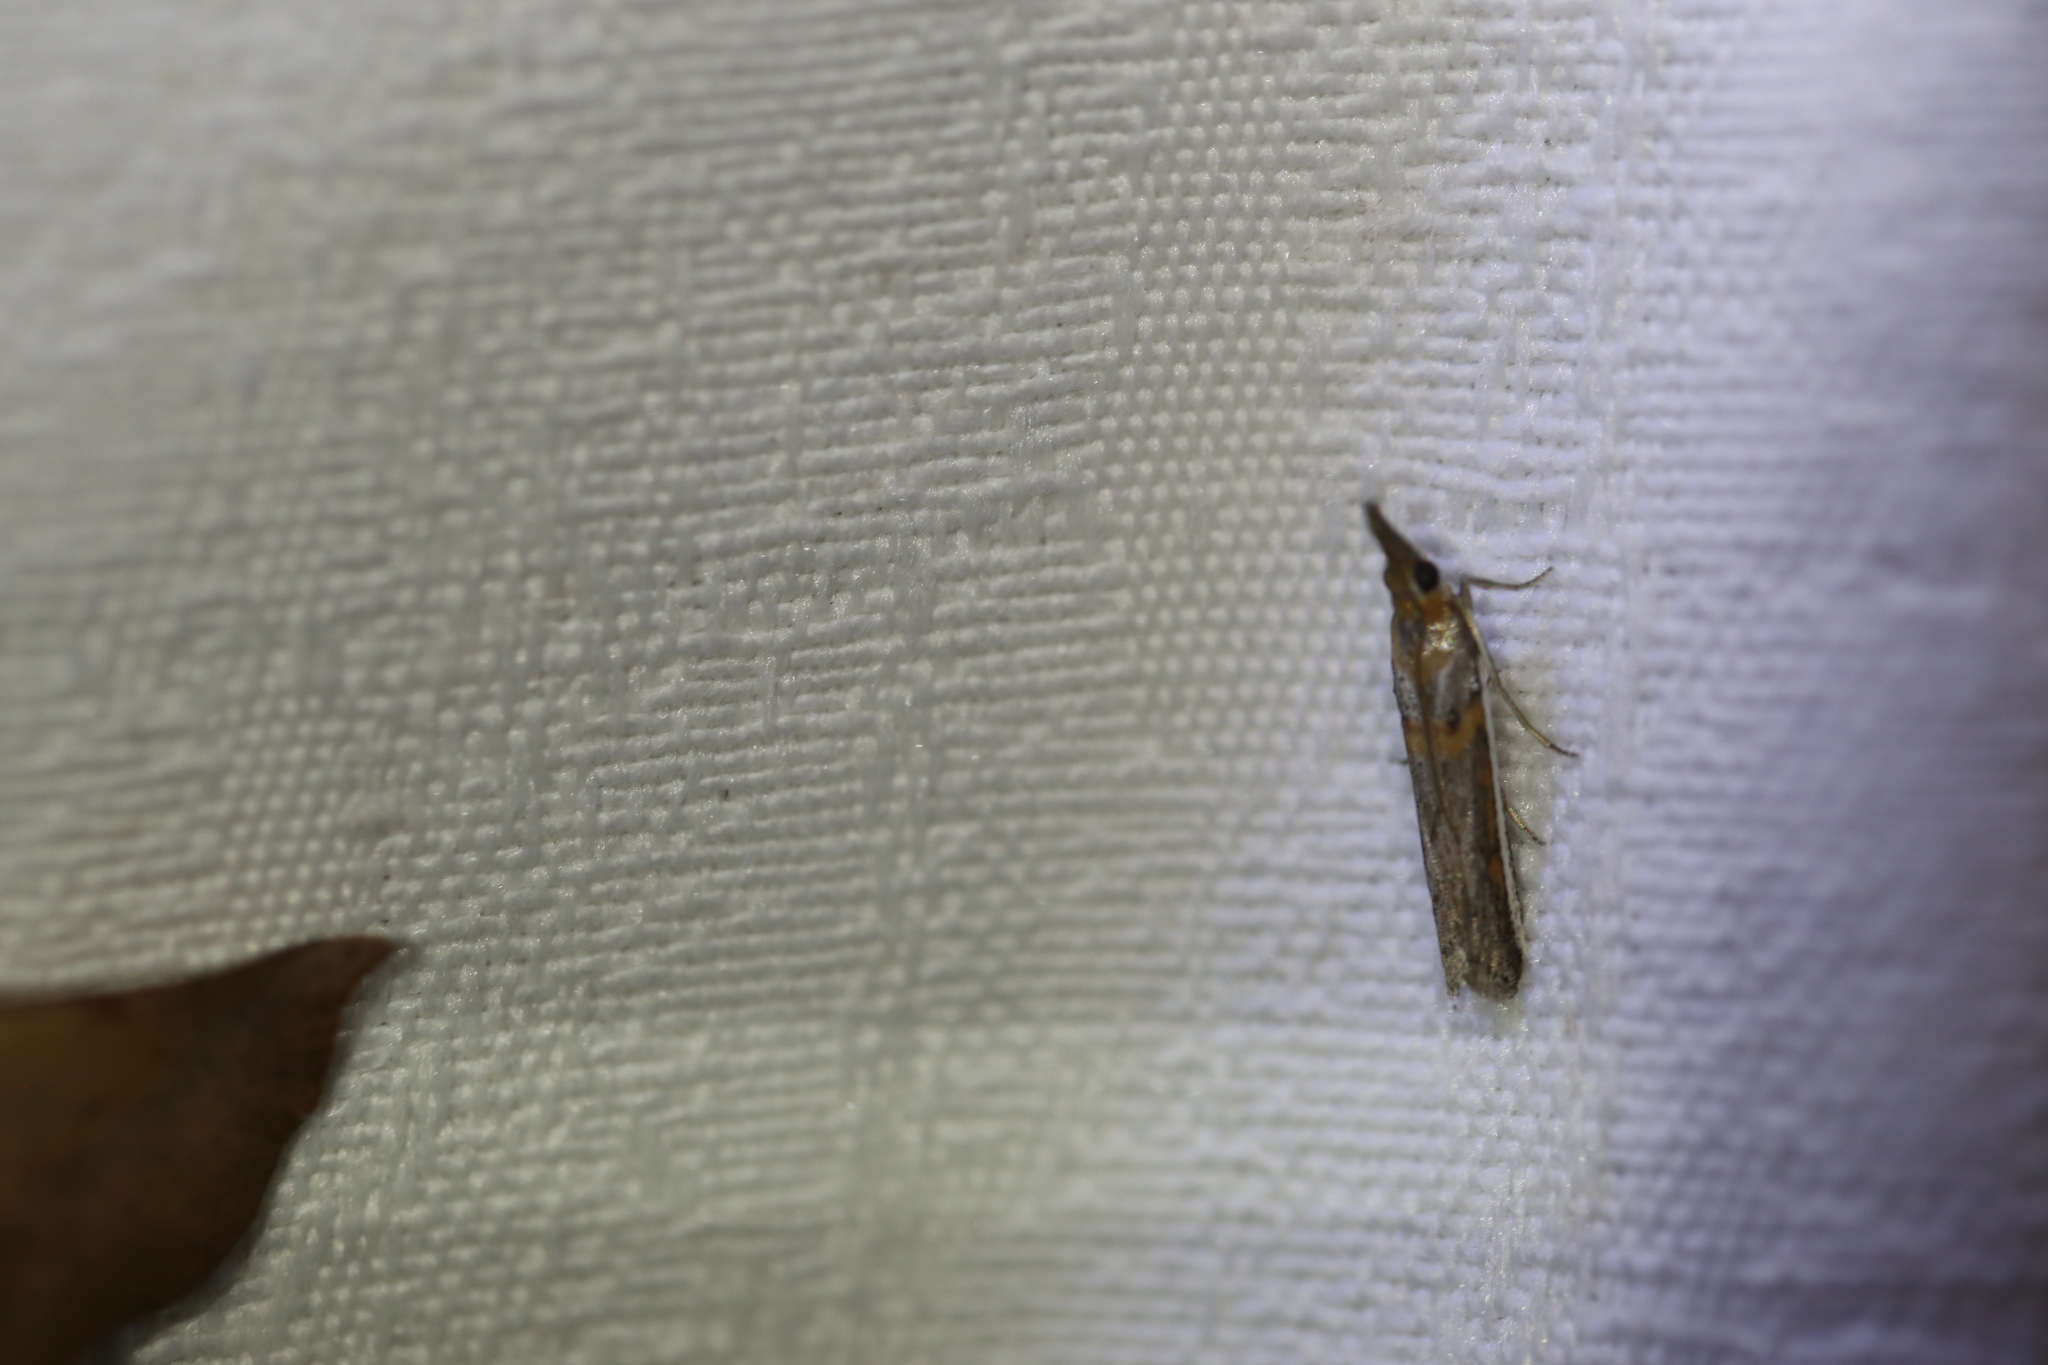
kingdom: Animalia
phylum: Arthropoda
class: Insecta
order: Lepidoptera
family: Erebidae
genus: Brunia
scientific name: Brunia replana
